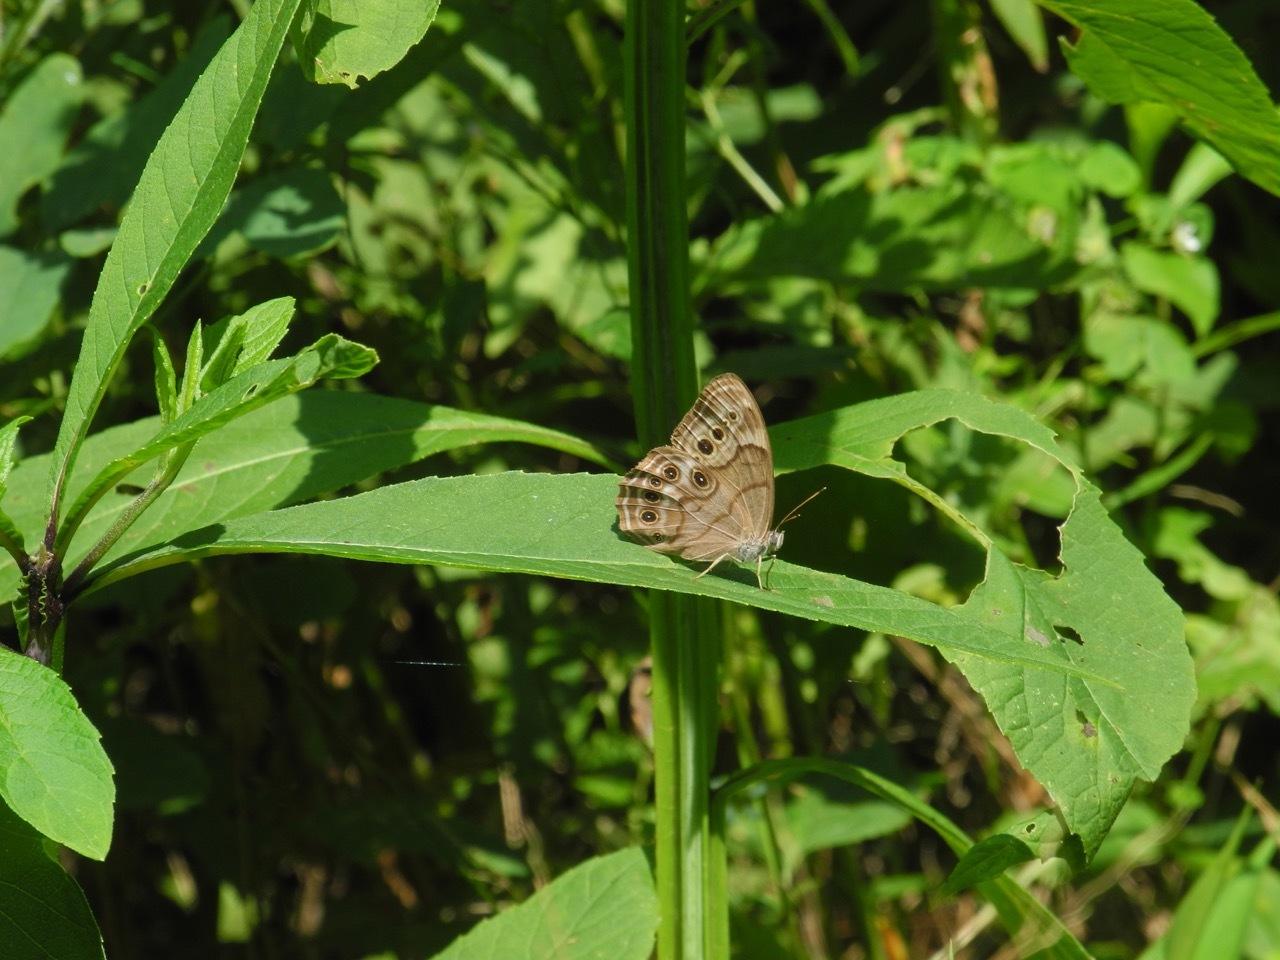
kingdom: Animalia
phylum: Arthropoda
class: Insecta
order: Lepidoptera
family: Nymphalidae
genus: Lethe
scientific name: Lethe anthedon
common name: Northern pearly-eye
